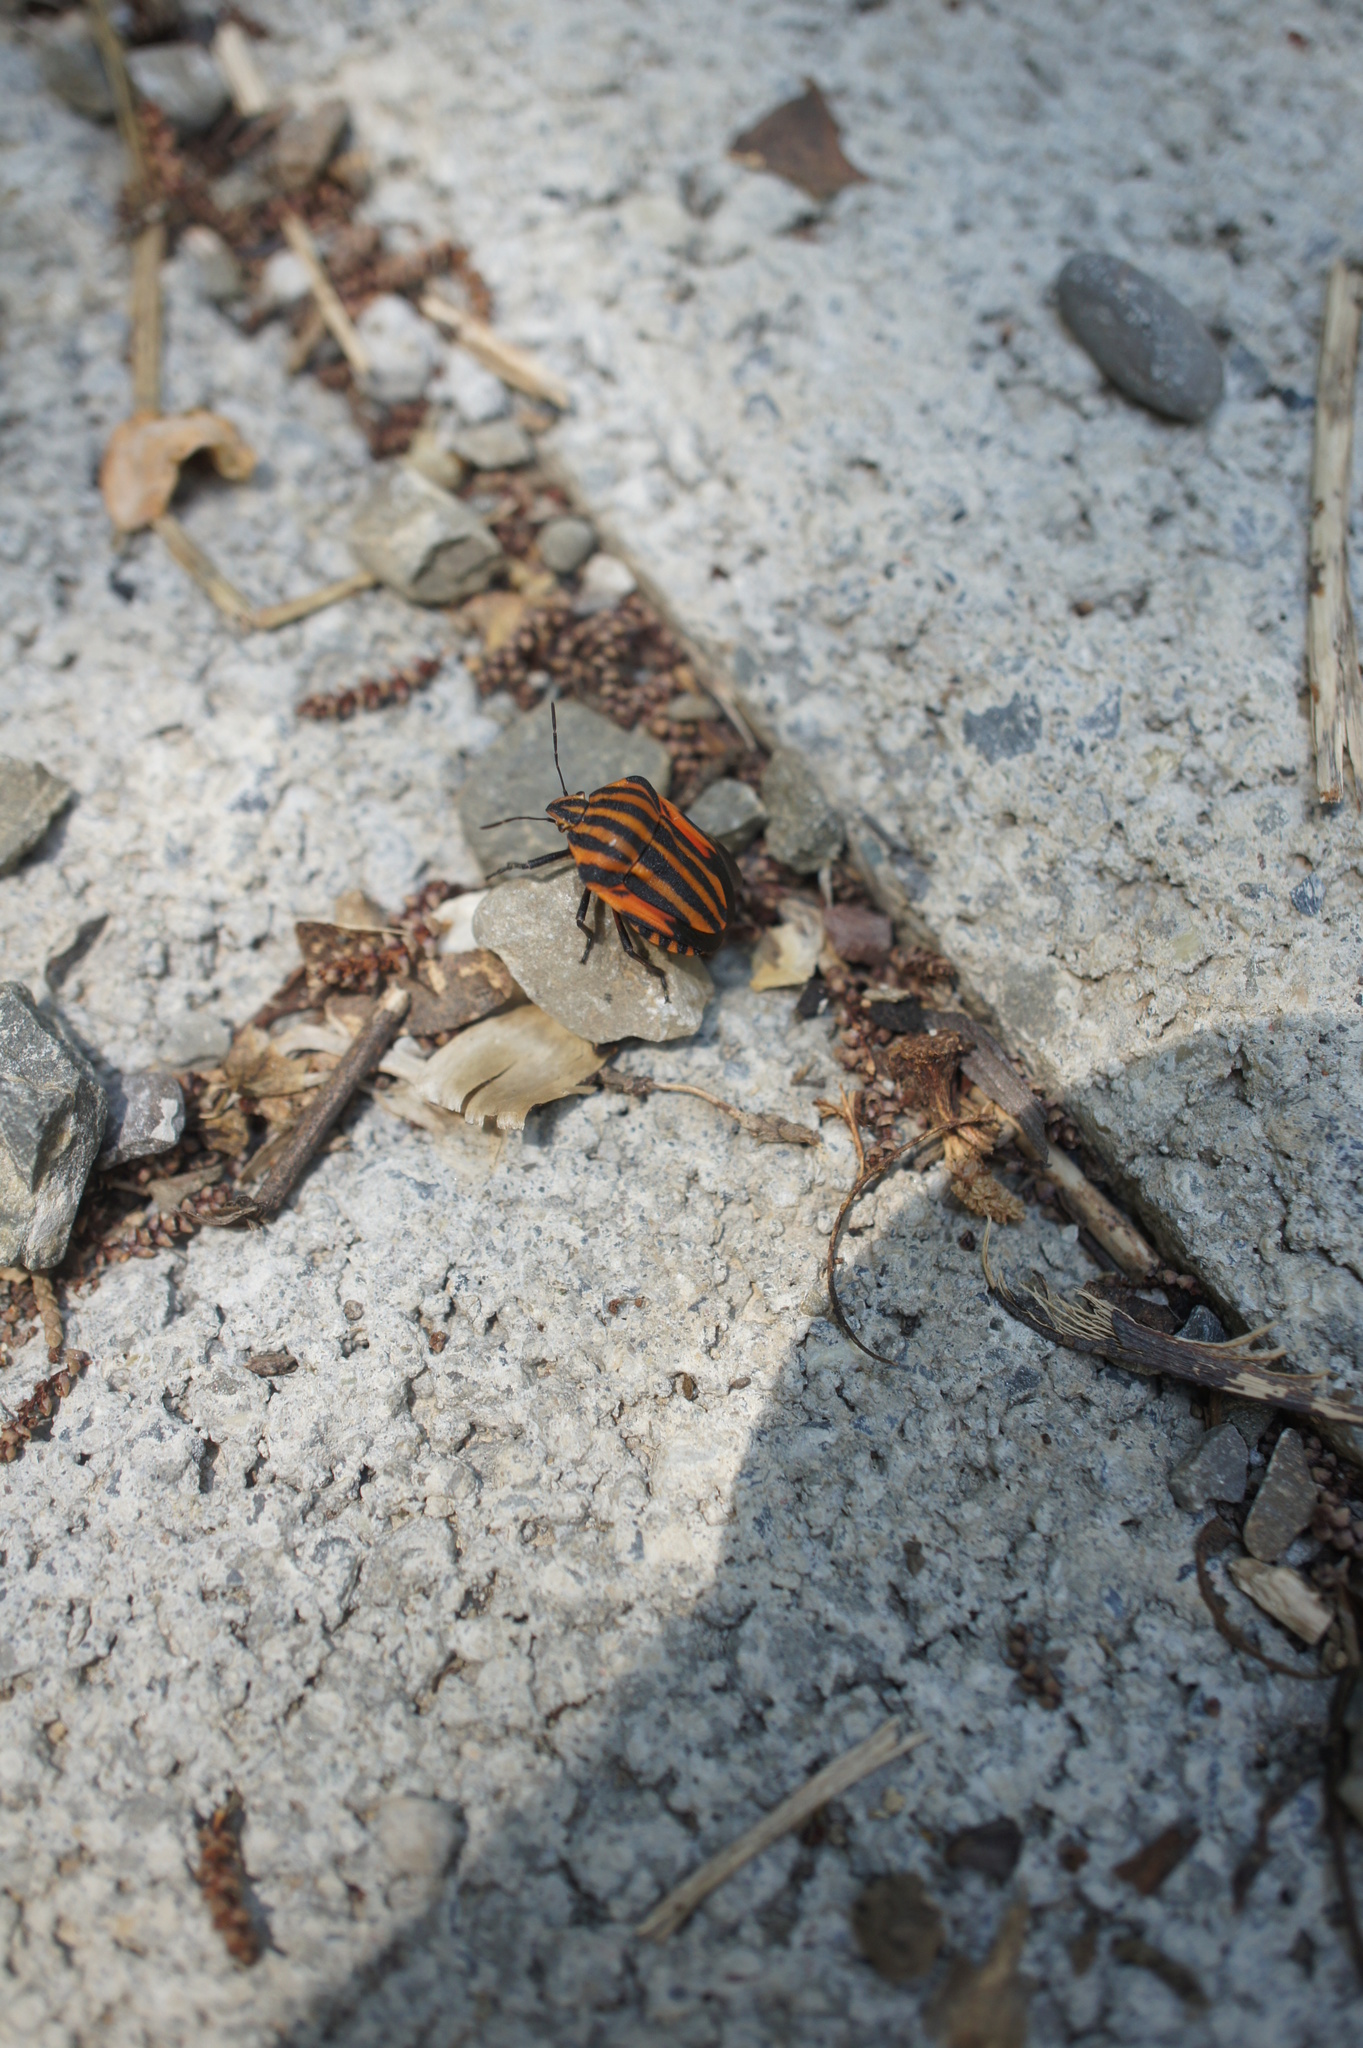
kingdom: Animalia
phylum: Arthropoda
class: Insecta
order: Hemiptera
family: Pentatomidae
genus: Graphosoma
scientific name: Graphosoma italicum
